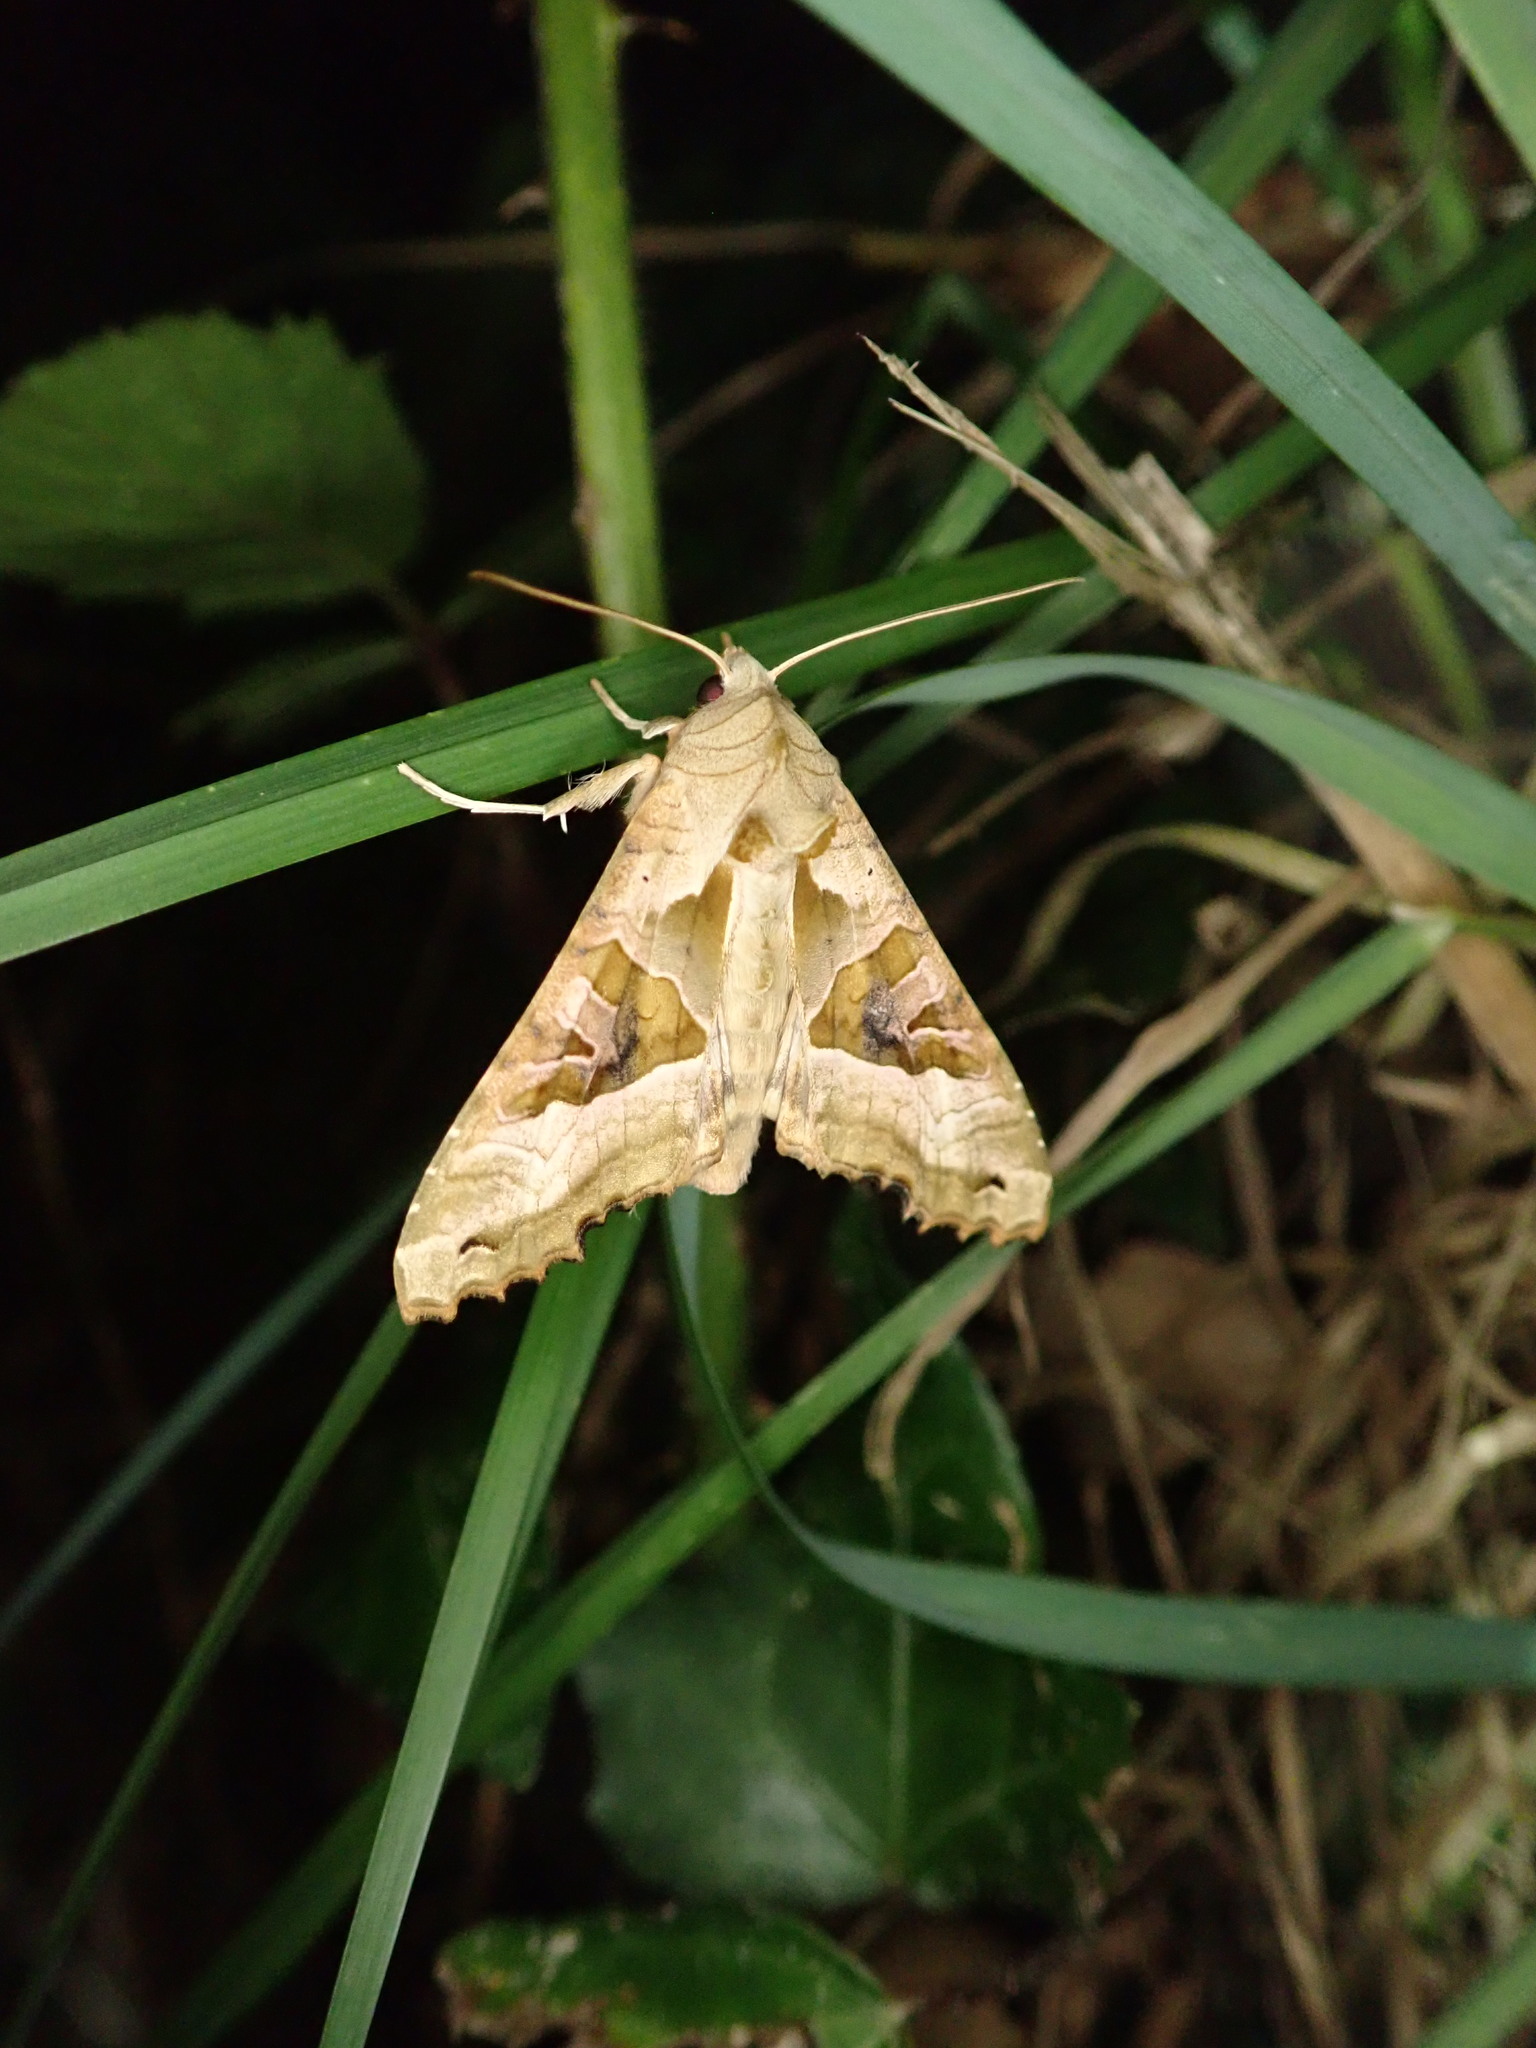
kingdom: Animalia
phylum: Arthropoda
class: Insecta
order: Lepidoptera
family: Noctuidae
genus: Phlogophora
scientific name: Phlogophora meticulosa
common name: Angle shades
